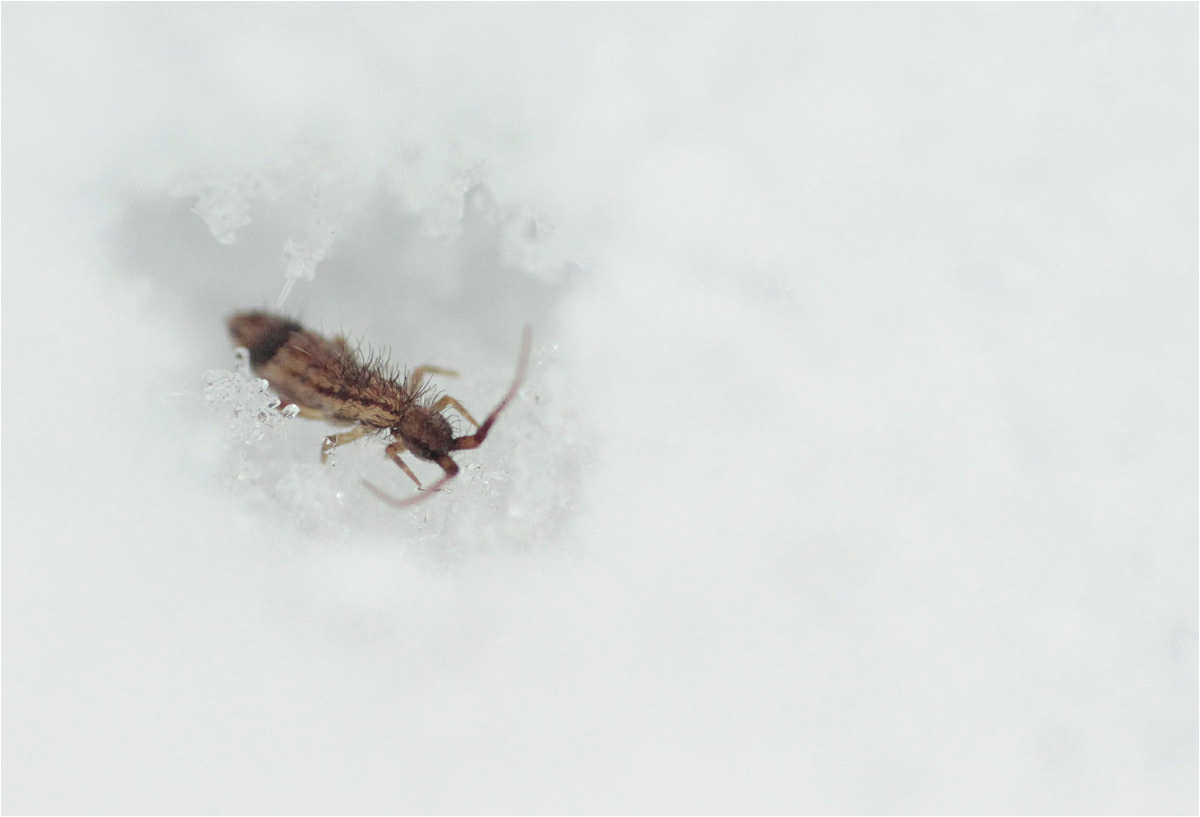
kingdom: Animalia
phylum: Arthropoda
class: Collembola
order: Entomobryomorpha
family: Entomobryidae
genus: Entomobrya
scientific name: Entomobrya nivalis
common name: Cosmopolitan springtail
